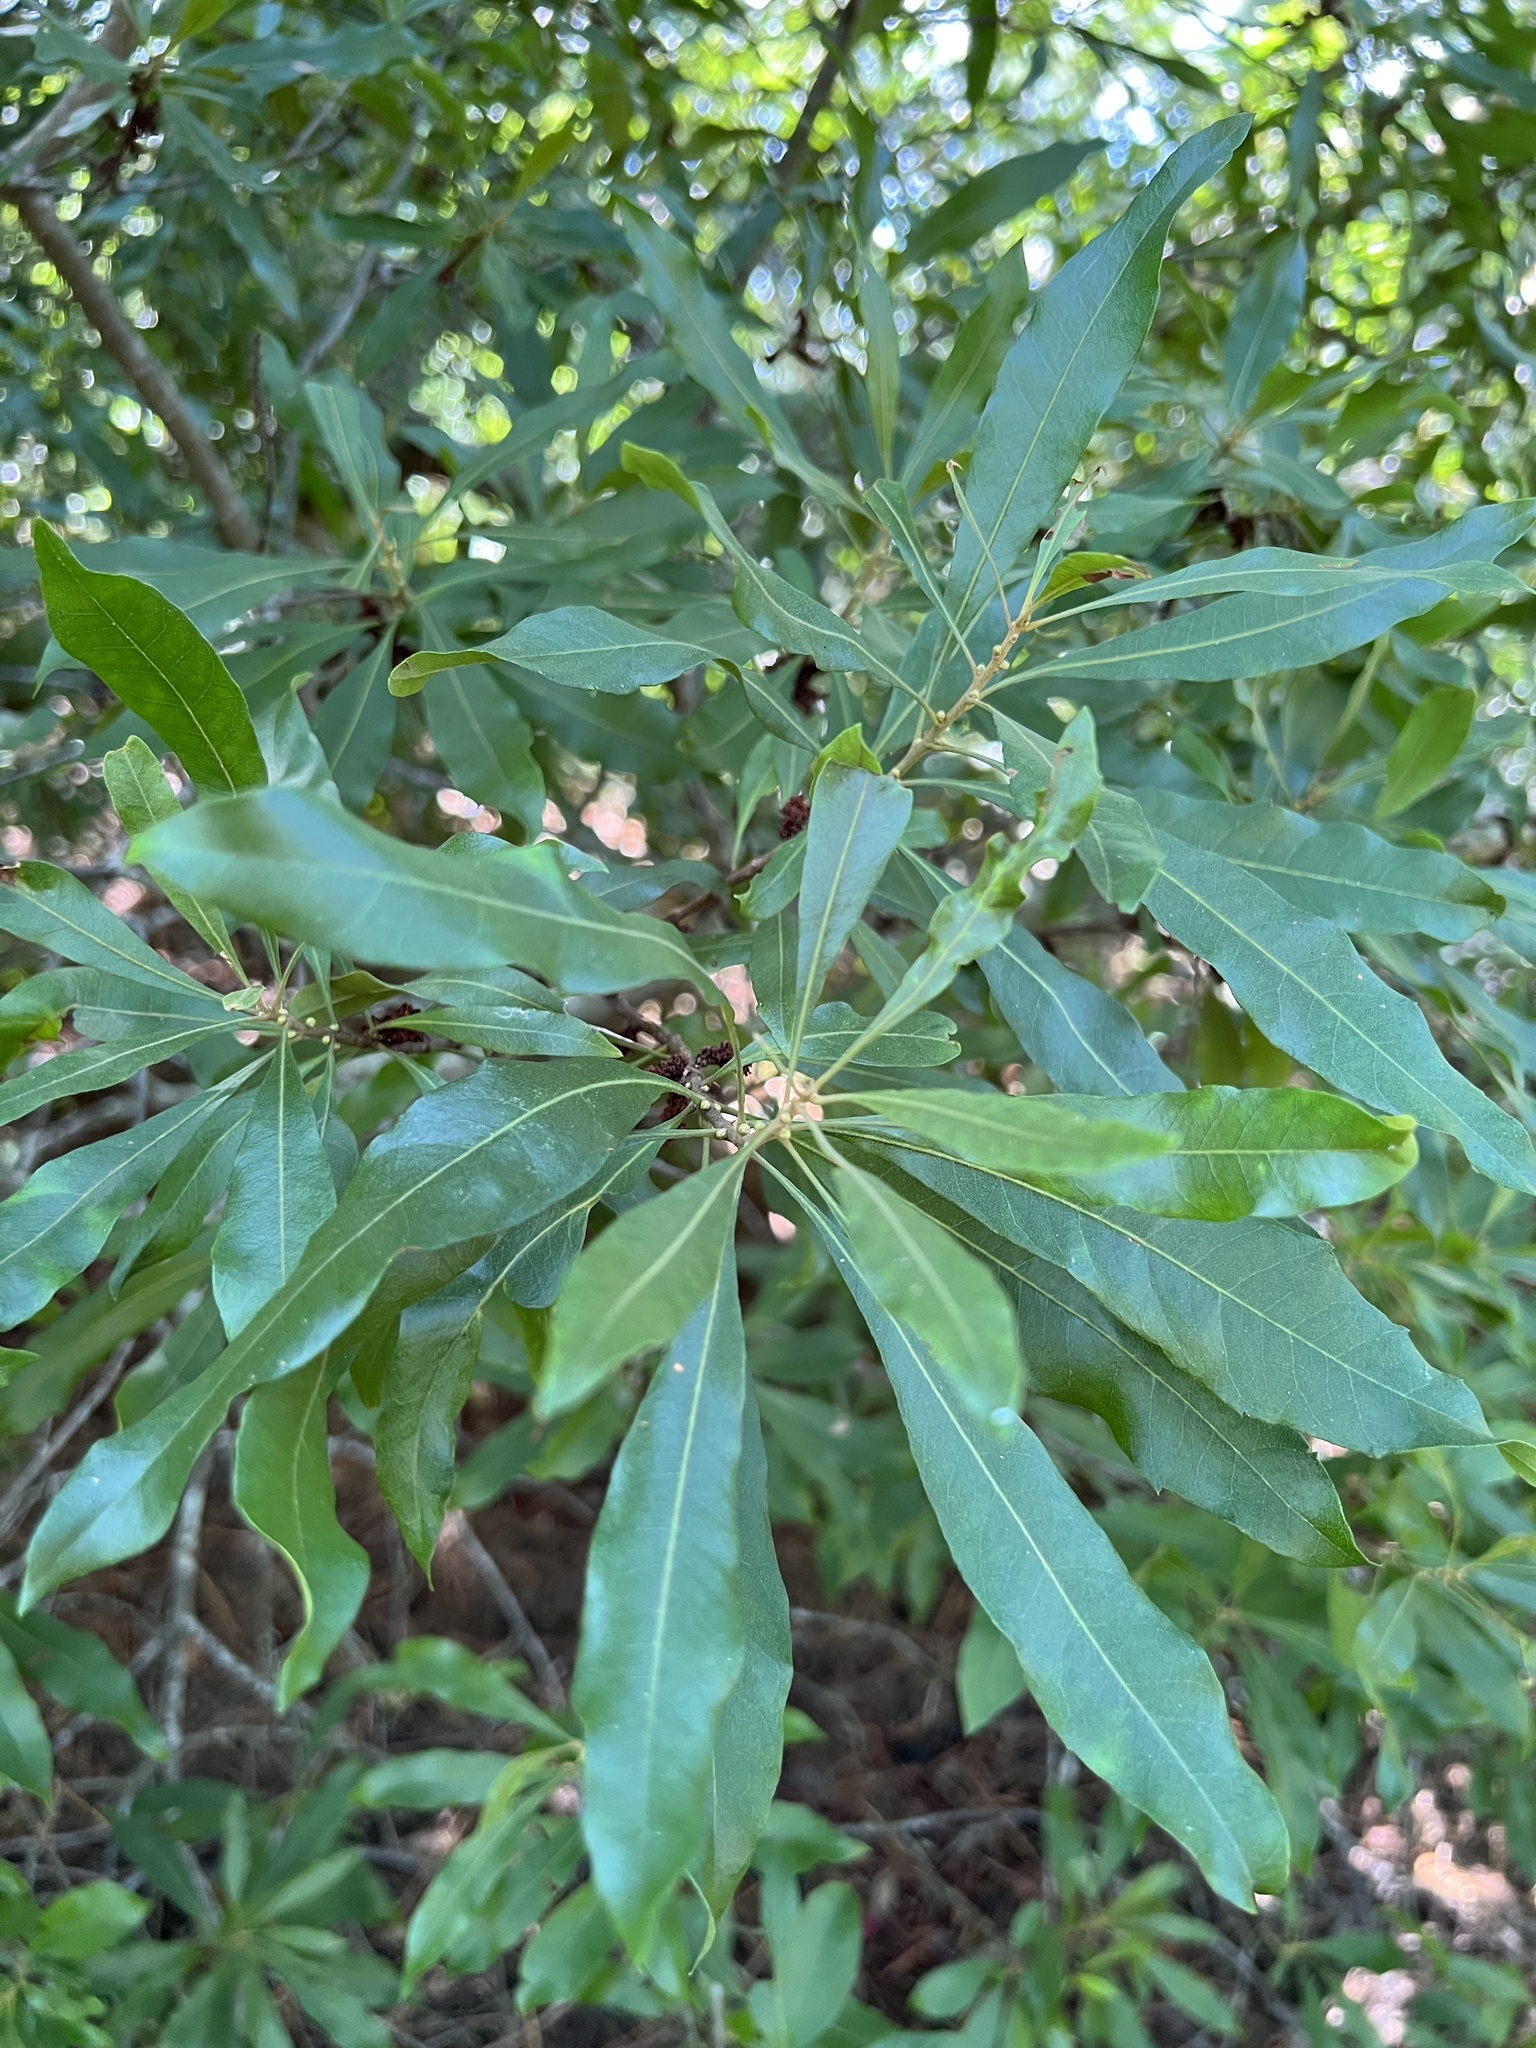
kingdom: Plantae
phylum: Tracheophyta
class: Magnoliopsida
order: Fagales
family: Myricaceae
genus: Morella
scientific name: Morella cerifera
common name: Wax myrtle
